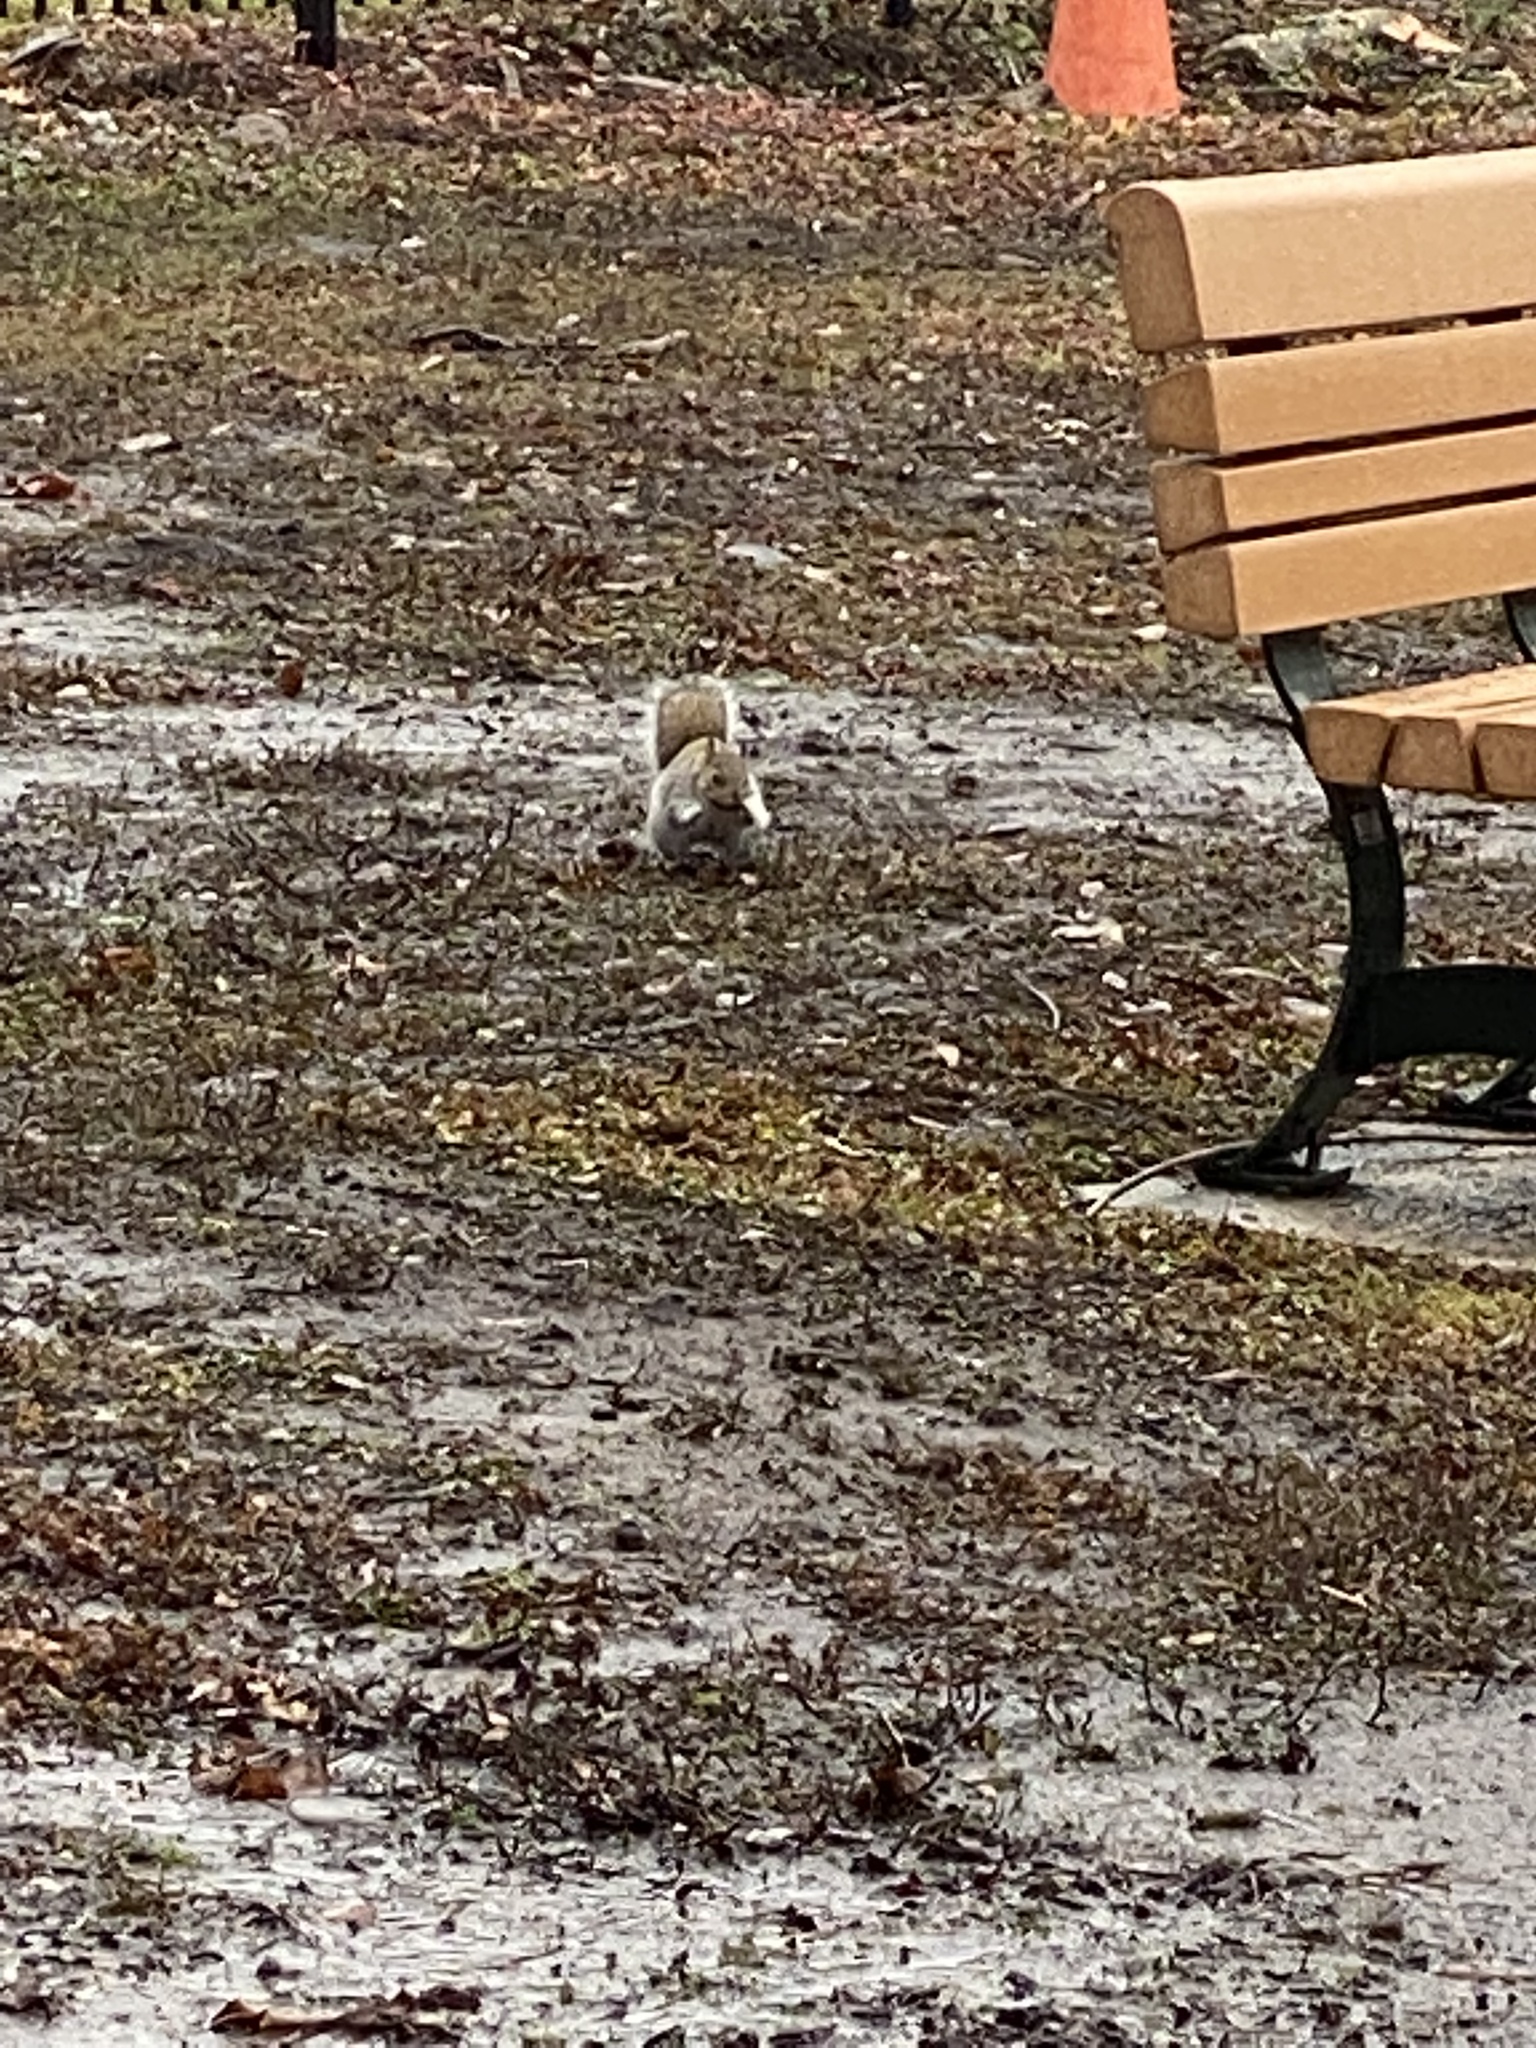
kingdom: Animalia
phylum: Chordata
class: Mammalia
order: Rodentia
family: Sciuridae
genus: Sciurus
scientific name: Sciurus carolinensis
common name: Eastern gray squirrel
